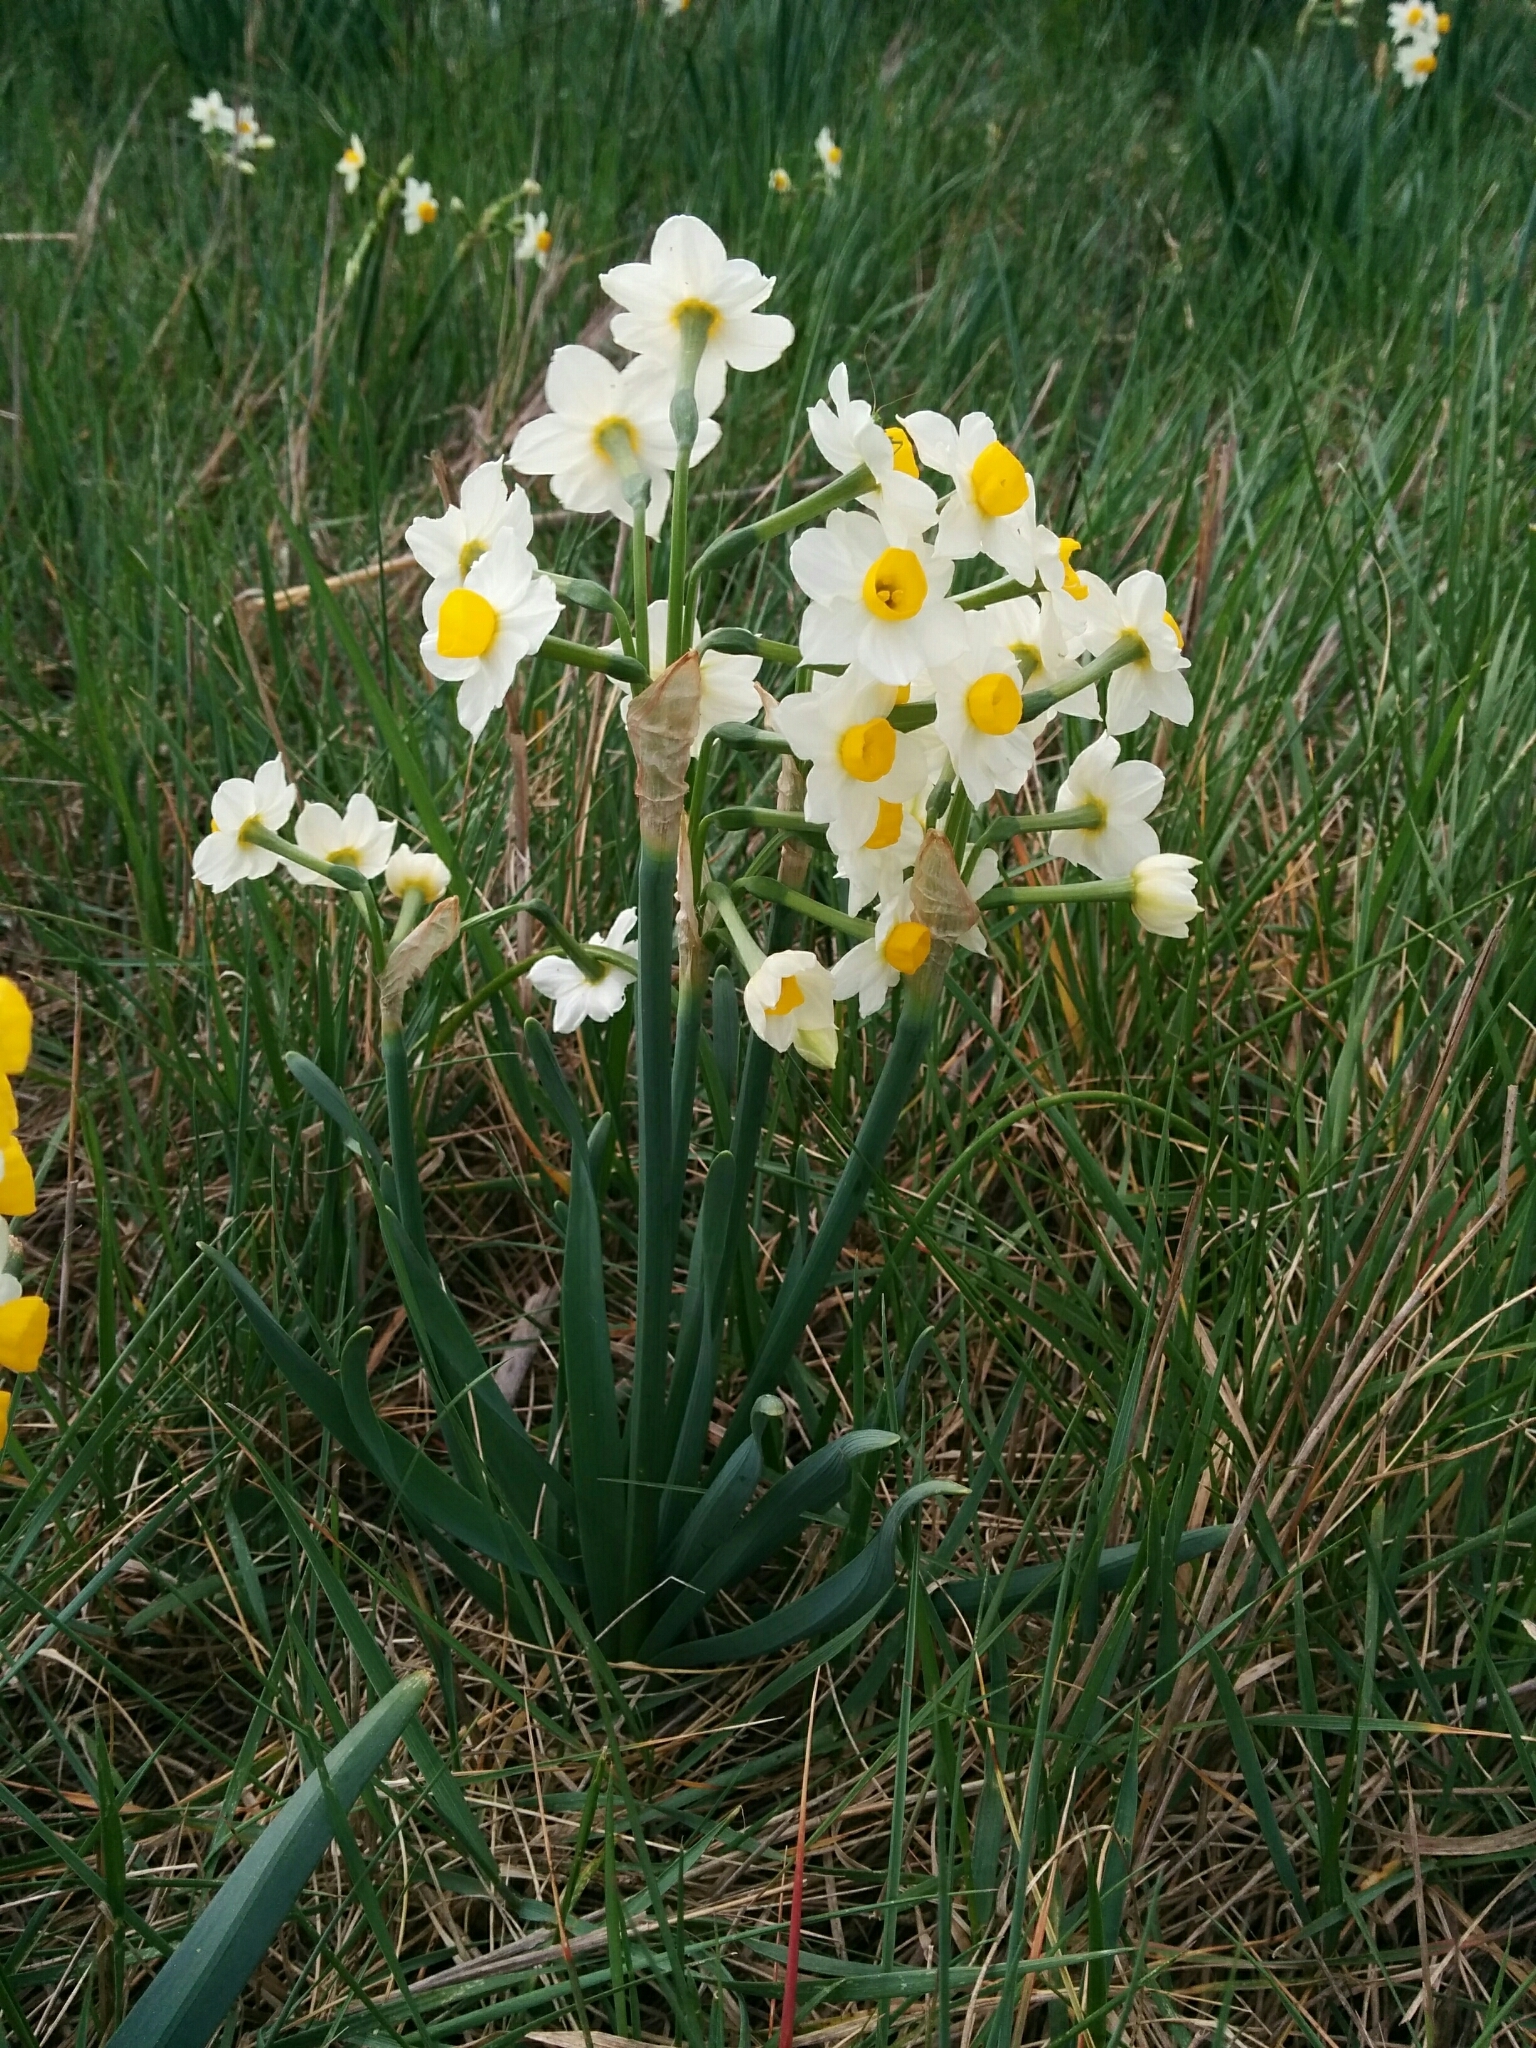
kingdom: Plantae
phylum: Tracheophyta
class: Liliopsida
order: Asparagales
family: Amaryllidaceae
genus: Narcissus
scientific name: Narcissus tazetta
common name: Bunch-flowered daffodil
